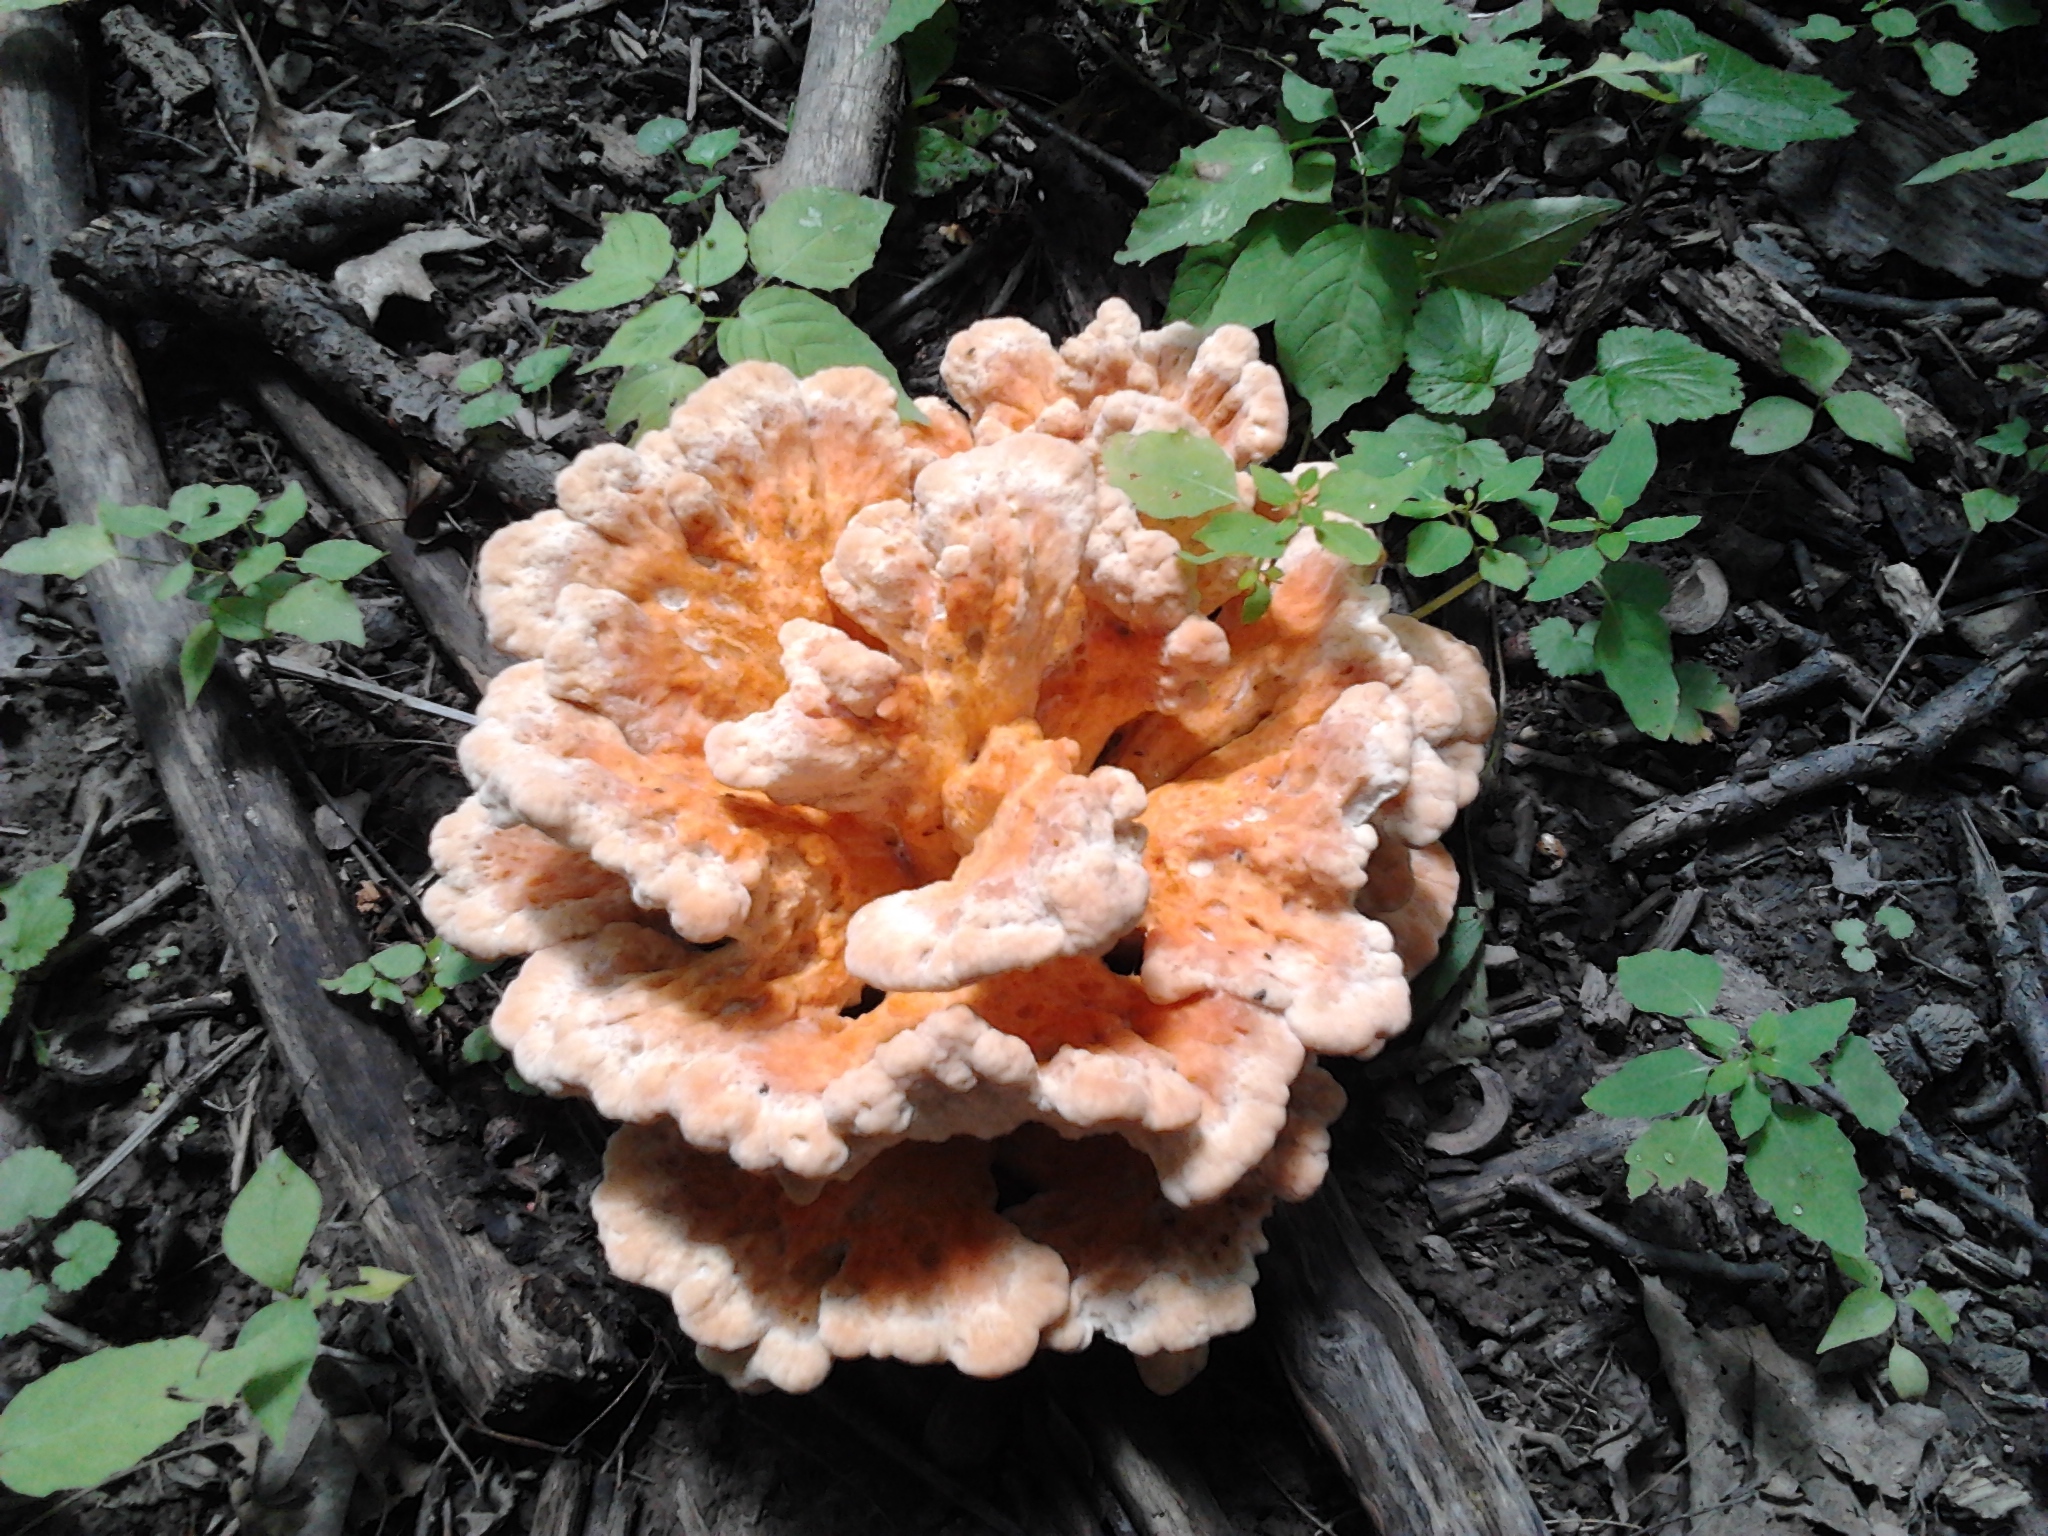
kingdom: Fungi
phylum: Basidiomycota
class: Agaricomycetes
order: Polyporales
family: Laetiporaceae
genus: Laetiporus
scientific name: Laetiporus sulphureus
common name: Chicken of the woods
